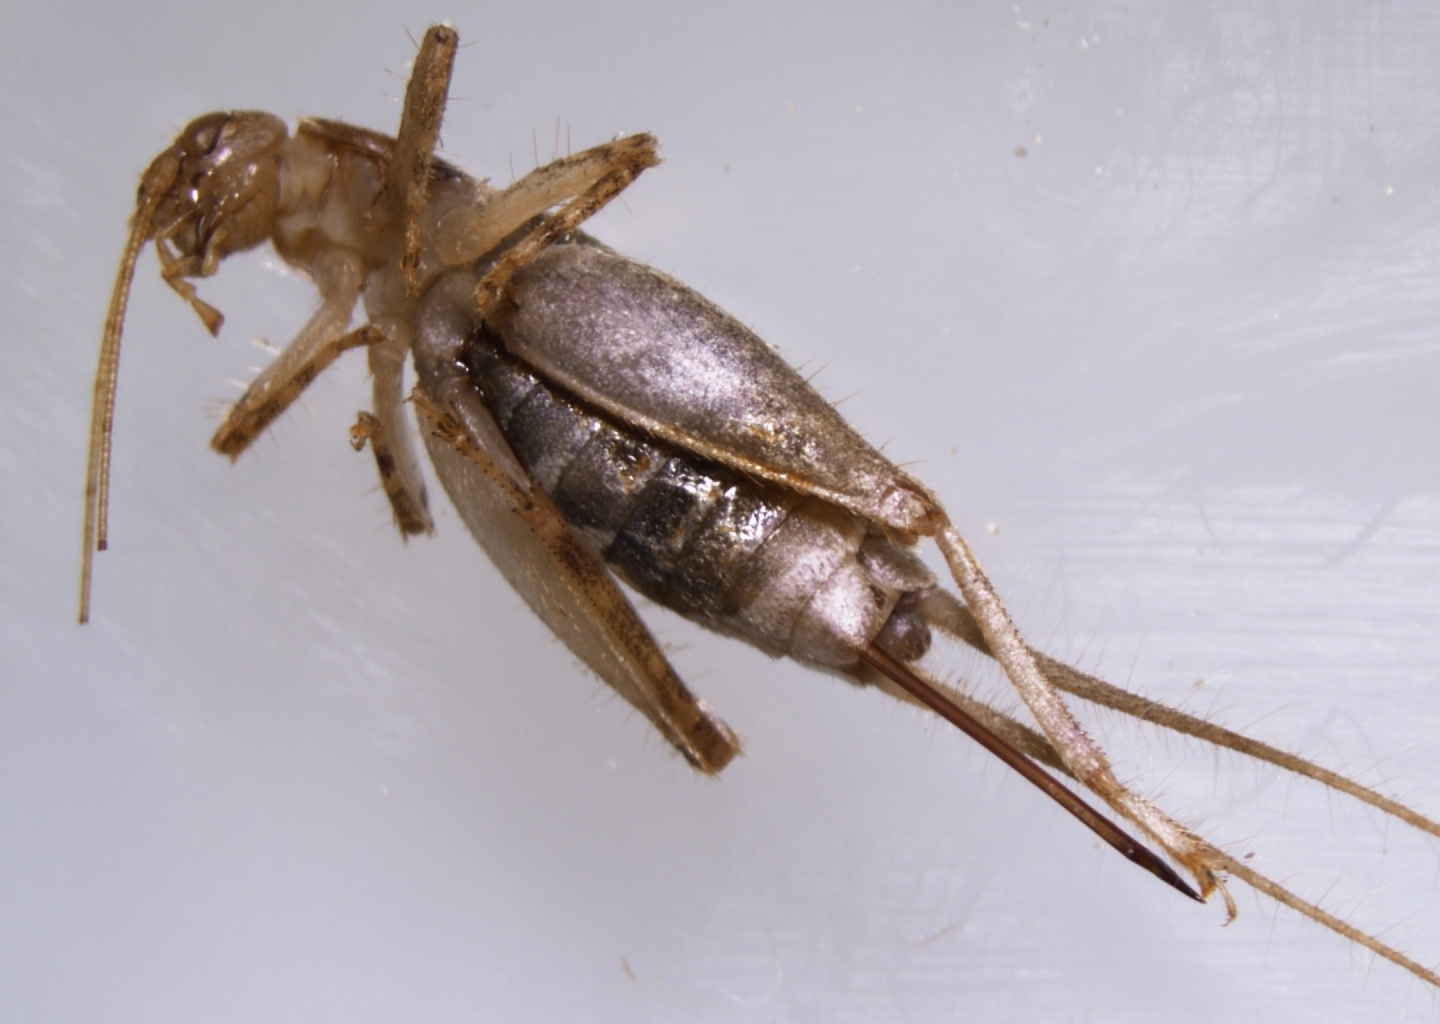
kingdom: Animalia
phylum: Arthropoda
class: Insecta
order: Orthoptera
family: Mogoplistidae
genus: Ornebius
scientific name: Ornebius novarae
